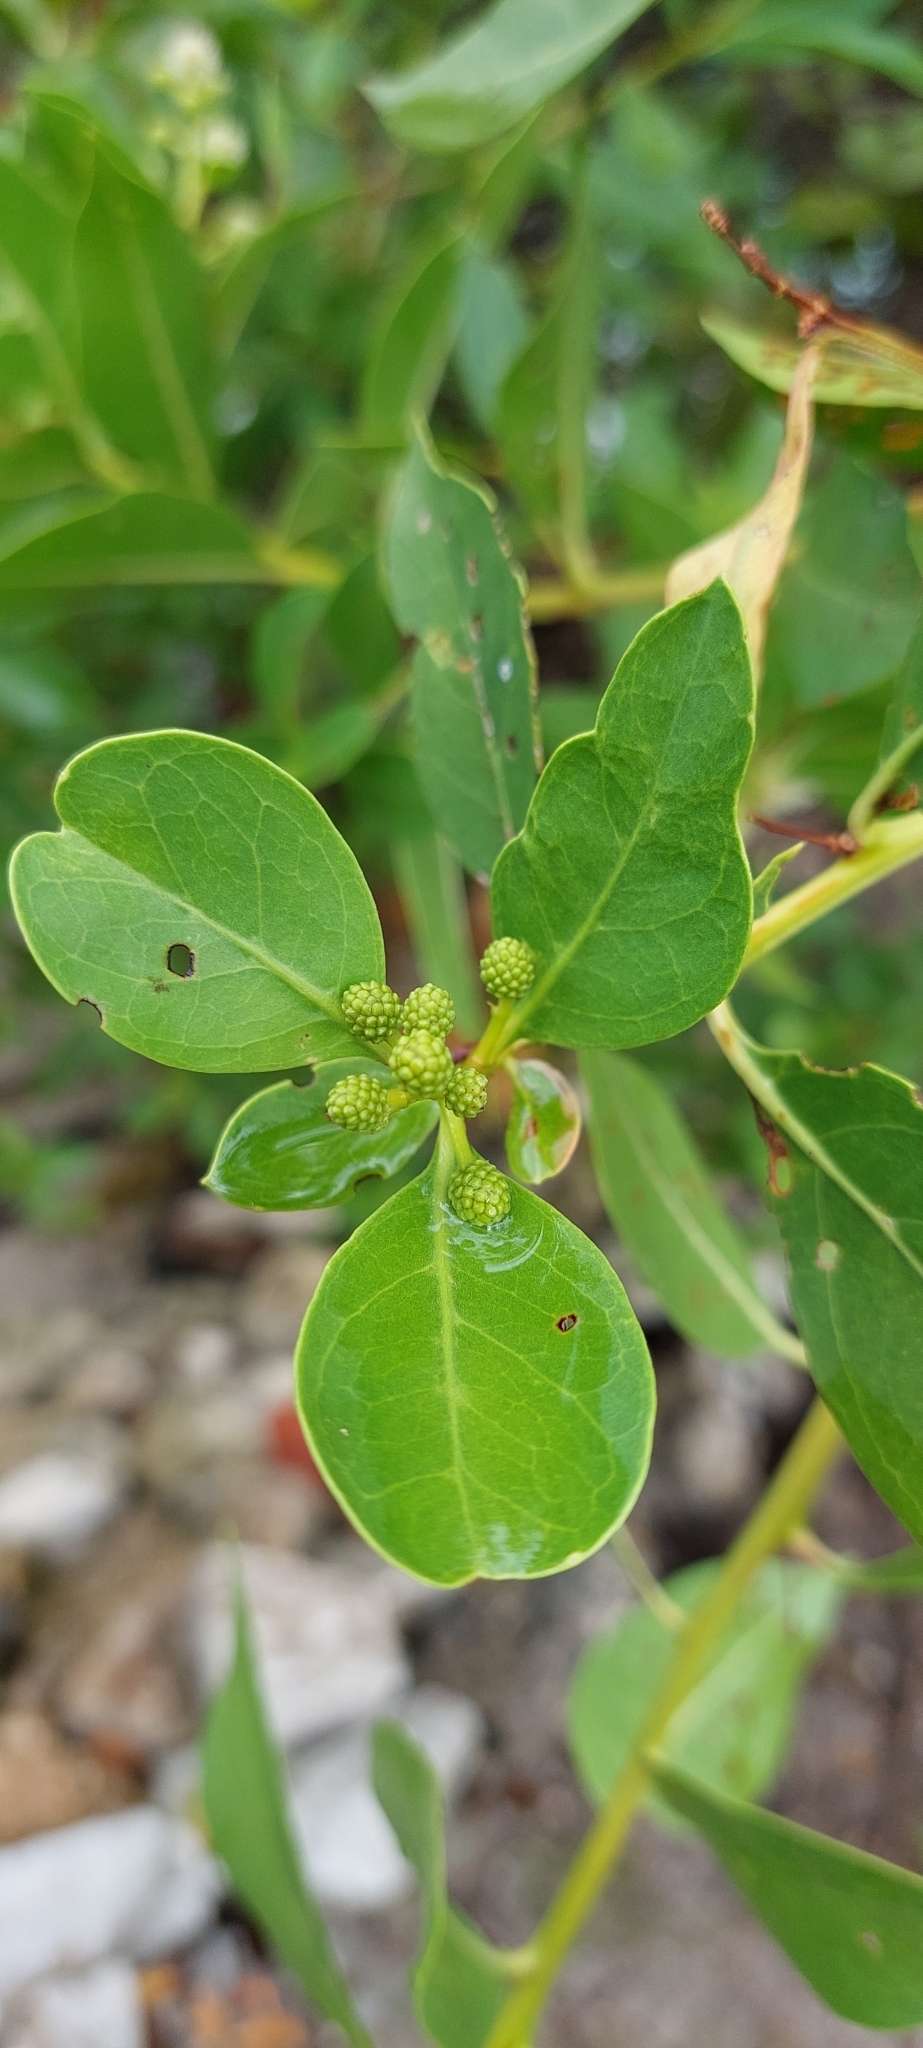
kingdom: Plantae
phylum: Tracheophyta
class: Magnoliopsida
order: Myrtales
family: Combretaceae
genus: Conocarpus
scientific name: Conocarpus erectus
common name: Button mangrove
